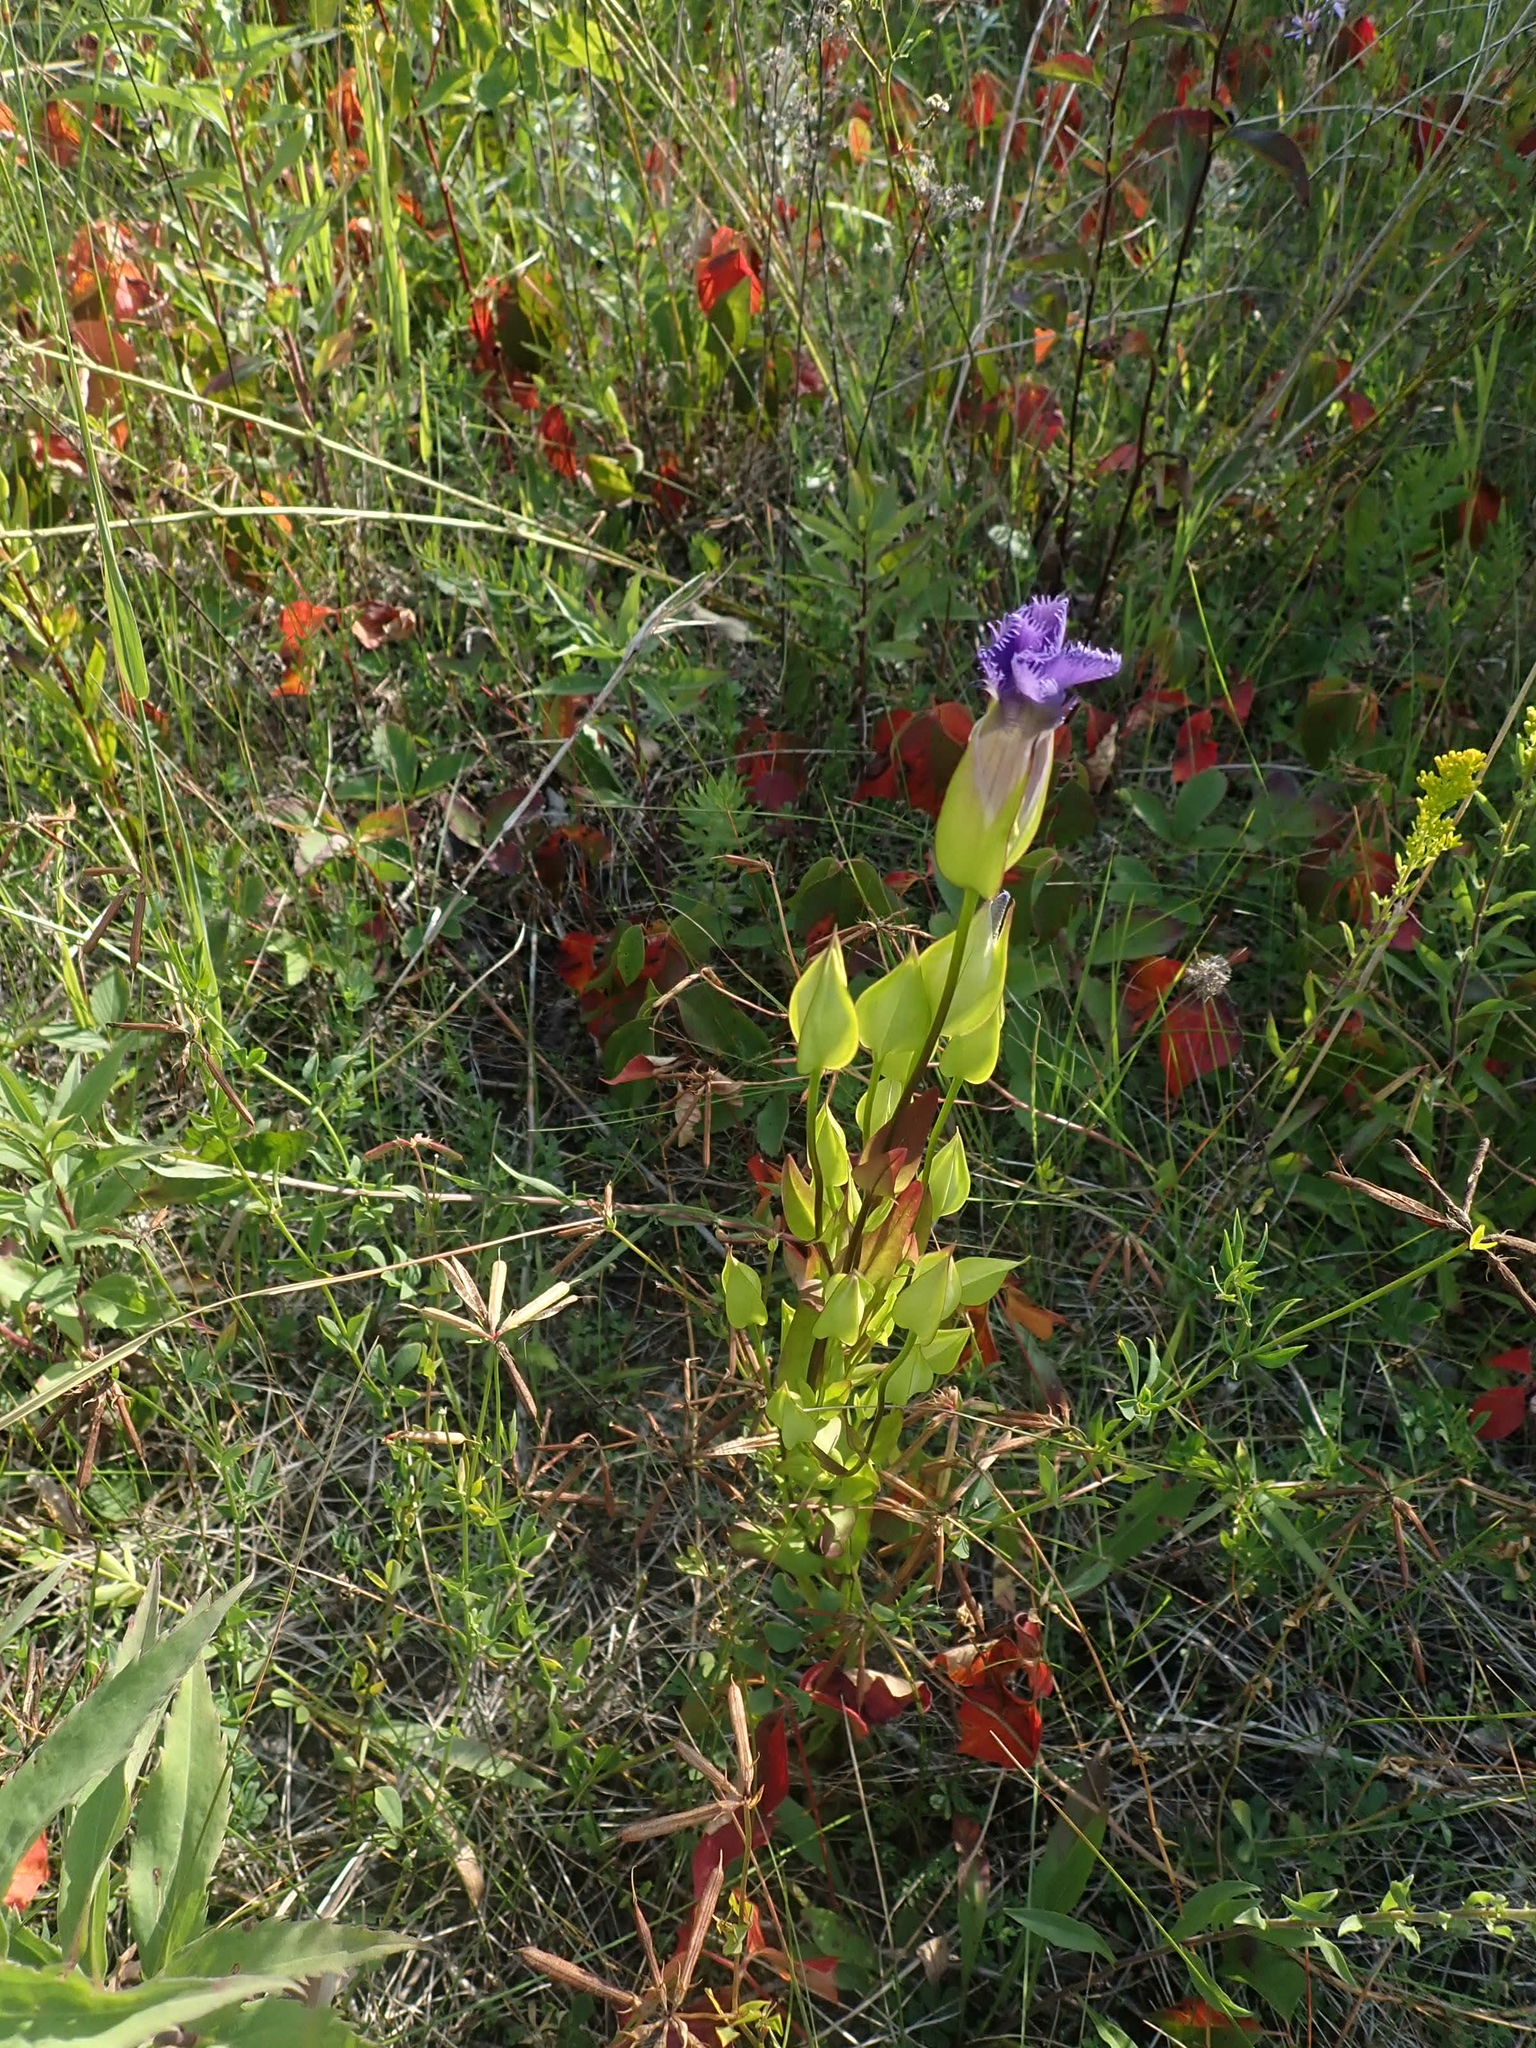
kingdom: Plantae
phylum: Tracheophyta
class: Magnoliopsida
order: Gentianales
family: Gentianaceae
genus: Gentianopsis
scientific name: Gentianopsis crinita
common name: Fringed-gentian
